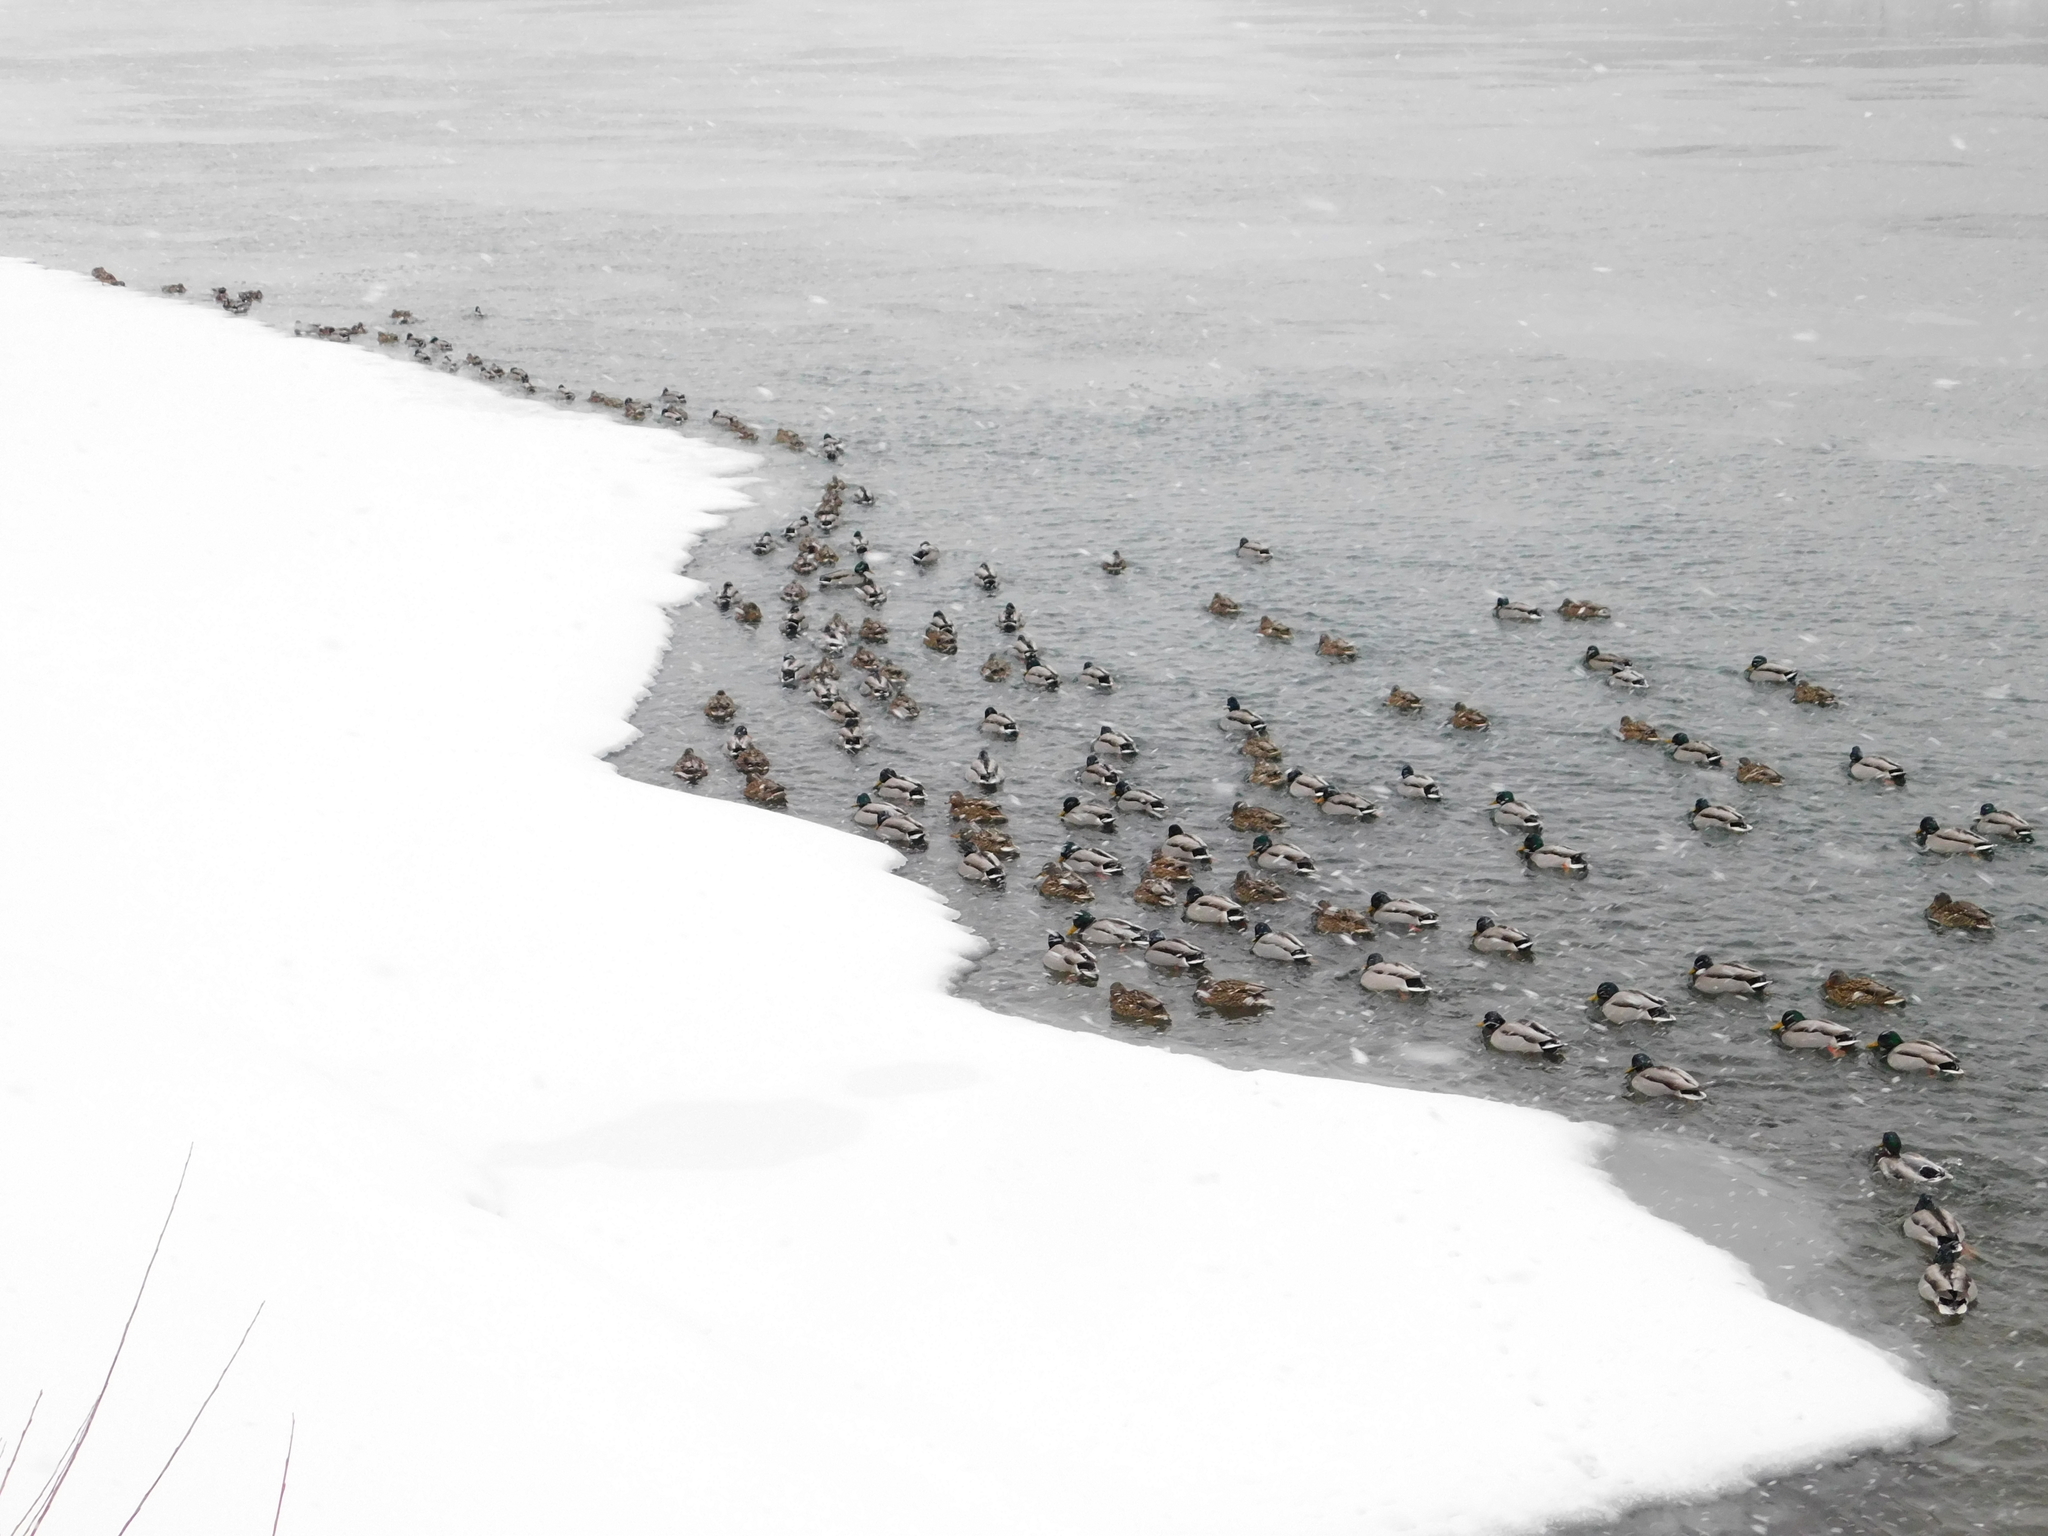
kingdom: Animalia
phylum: Chordata
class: Aves
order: Anseriformes
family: Anatidae
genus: Anas
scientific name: Anas platyrhynchos
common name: Mallard
